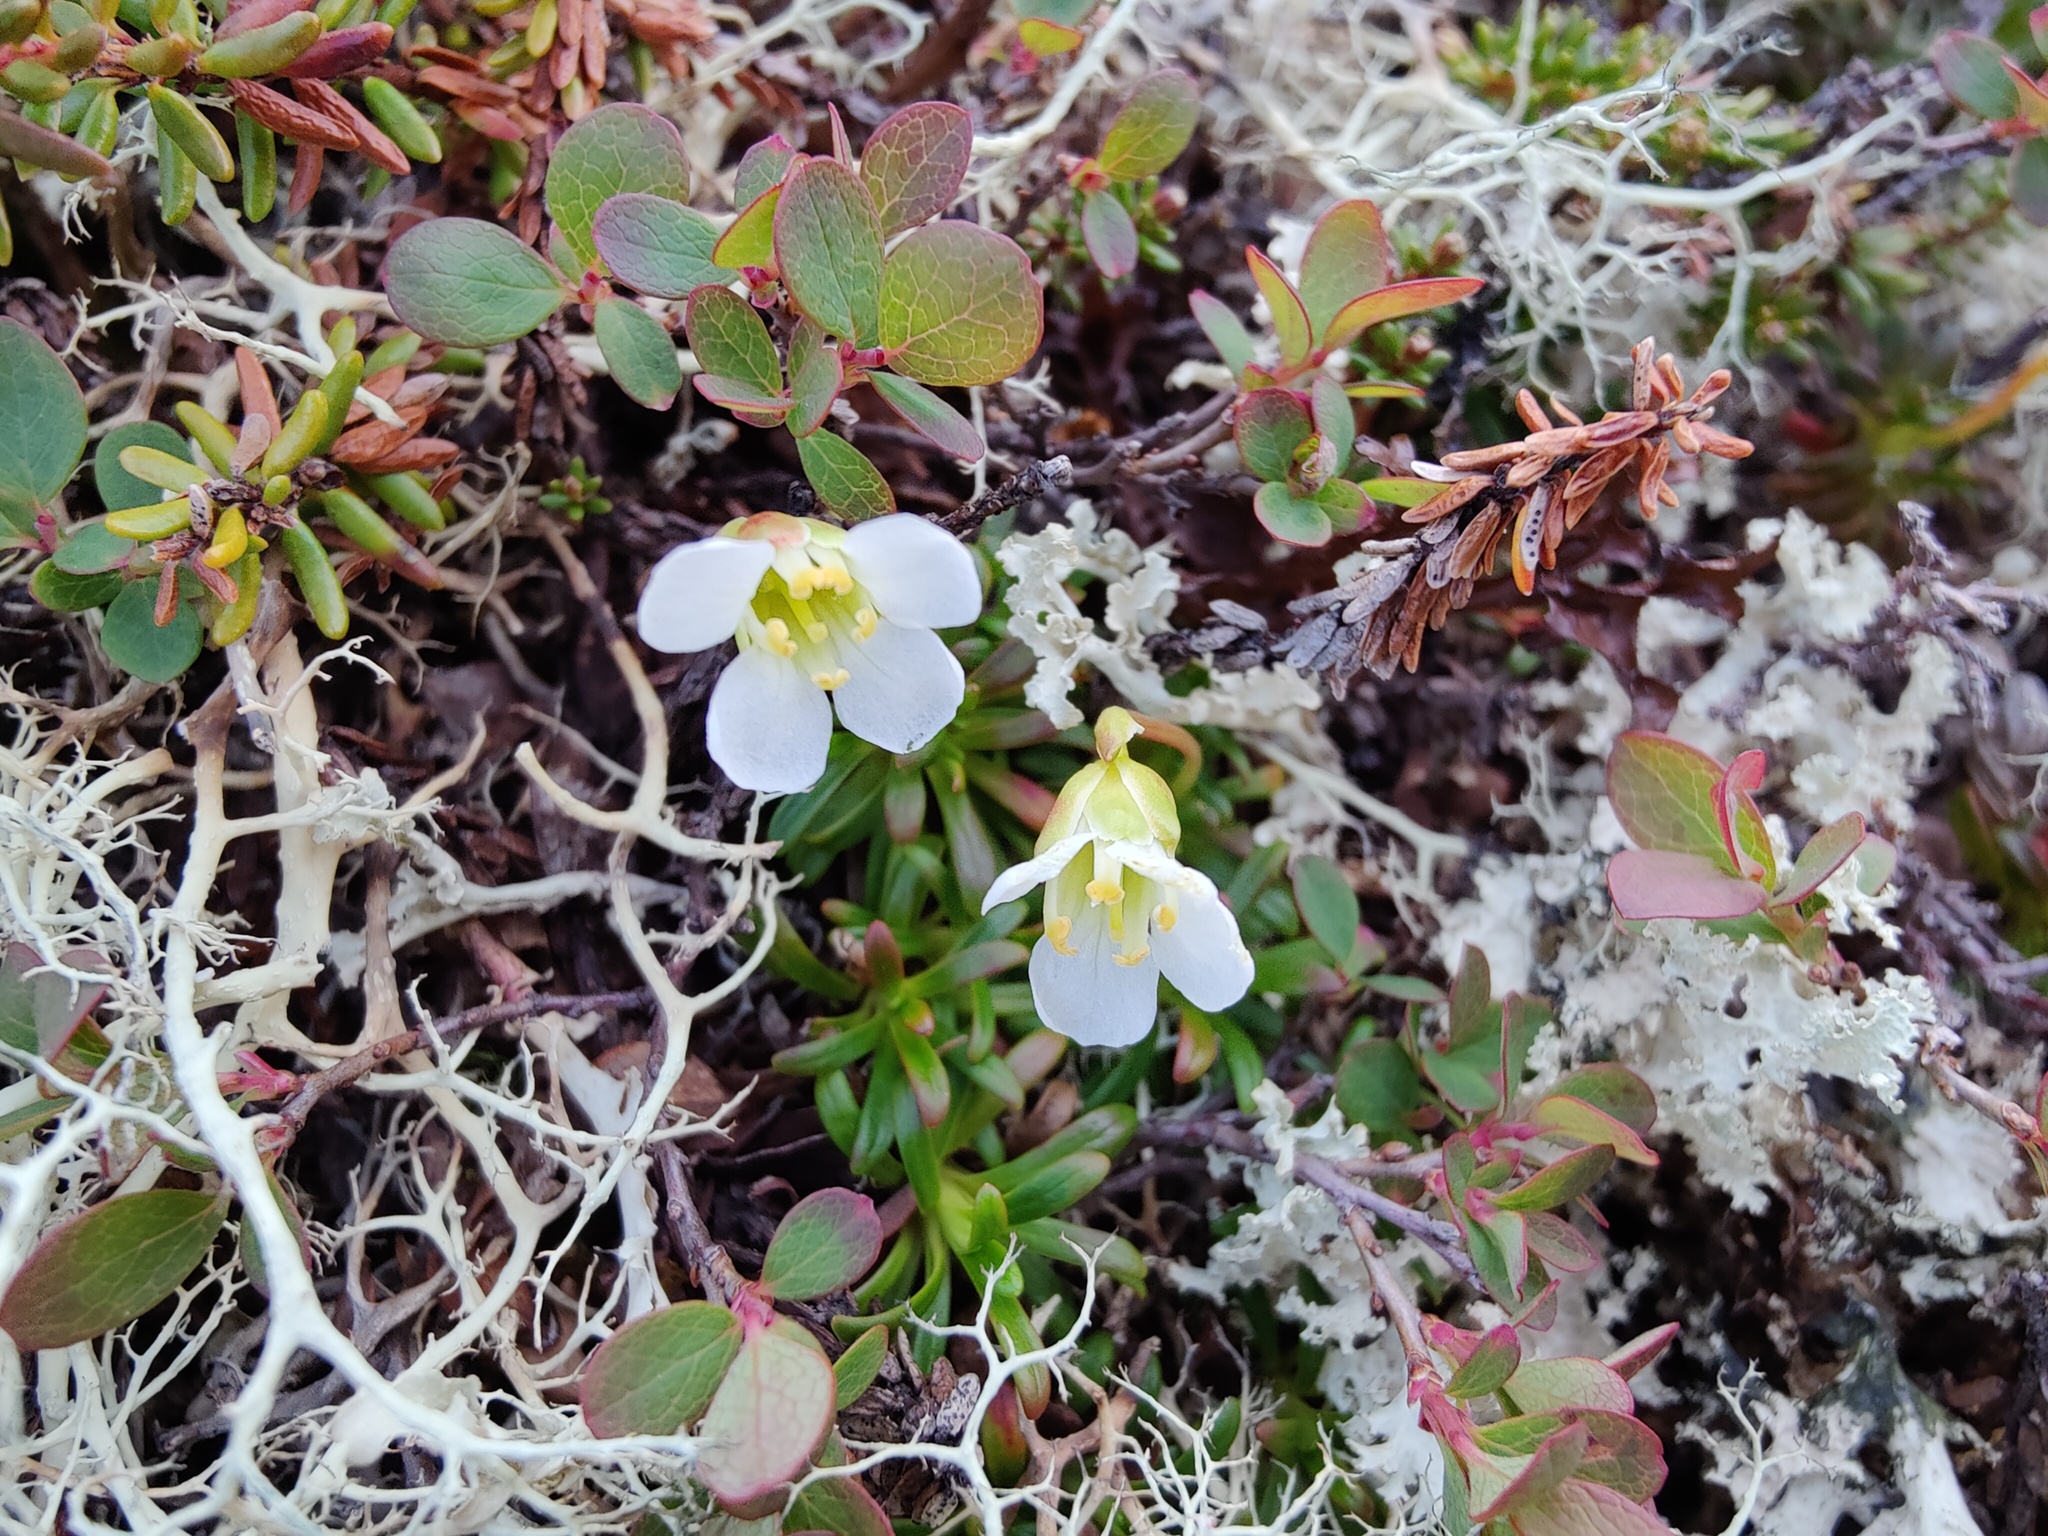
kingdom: Plantae
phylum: Tracheophyta
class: Magnoliopsida
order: Ericales
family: Diapensiaceae
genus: Diapensia
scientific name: Diapensia lapponica
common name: Diapensia
